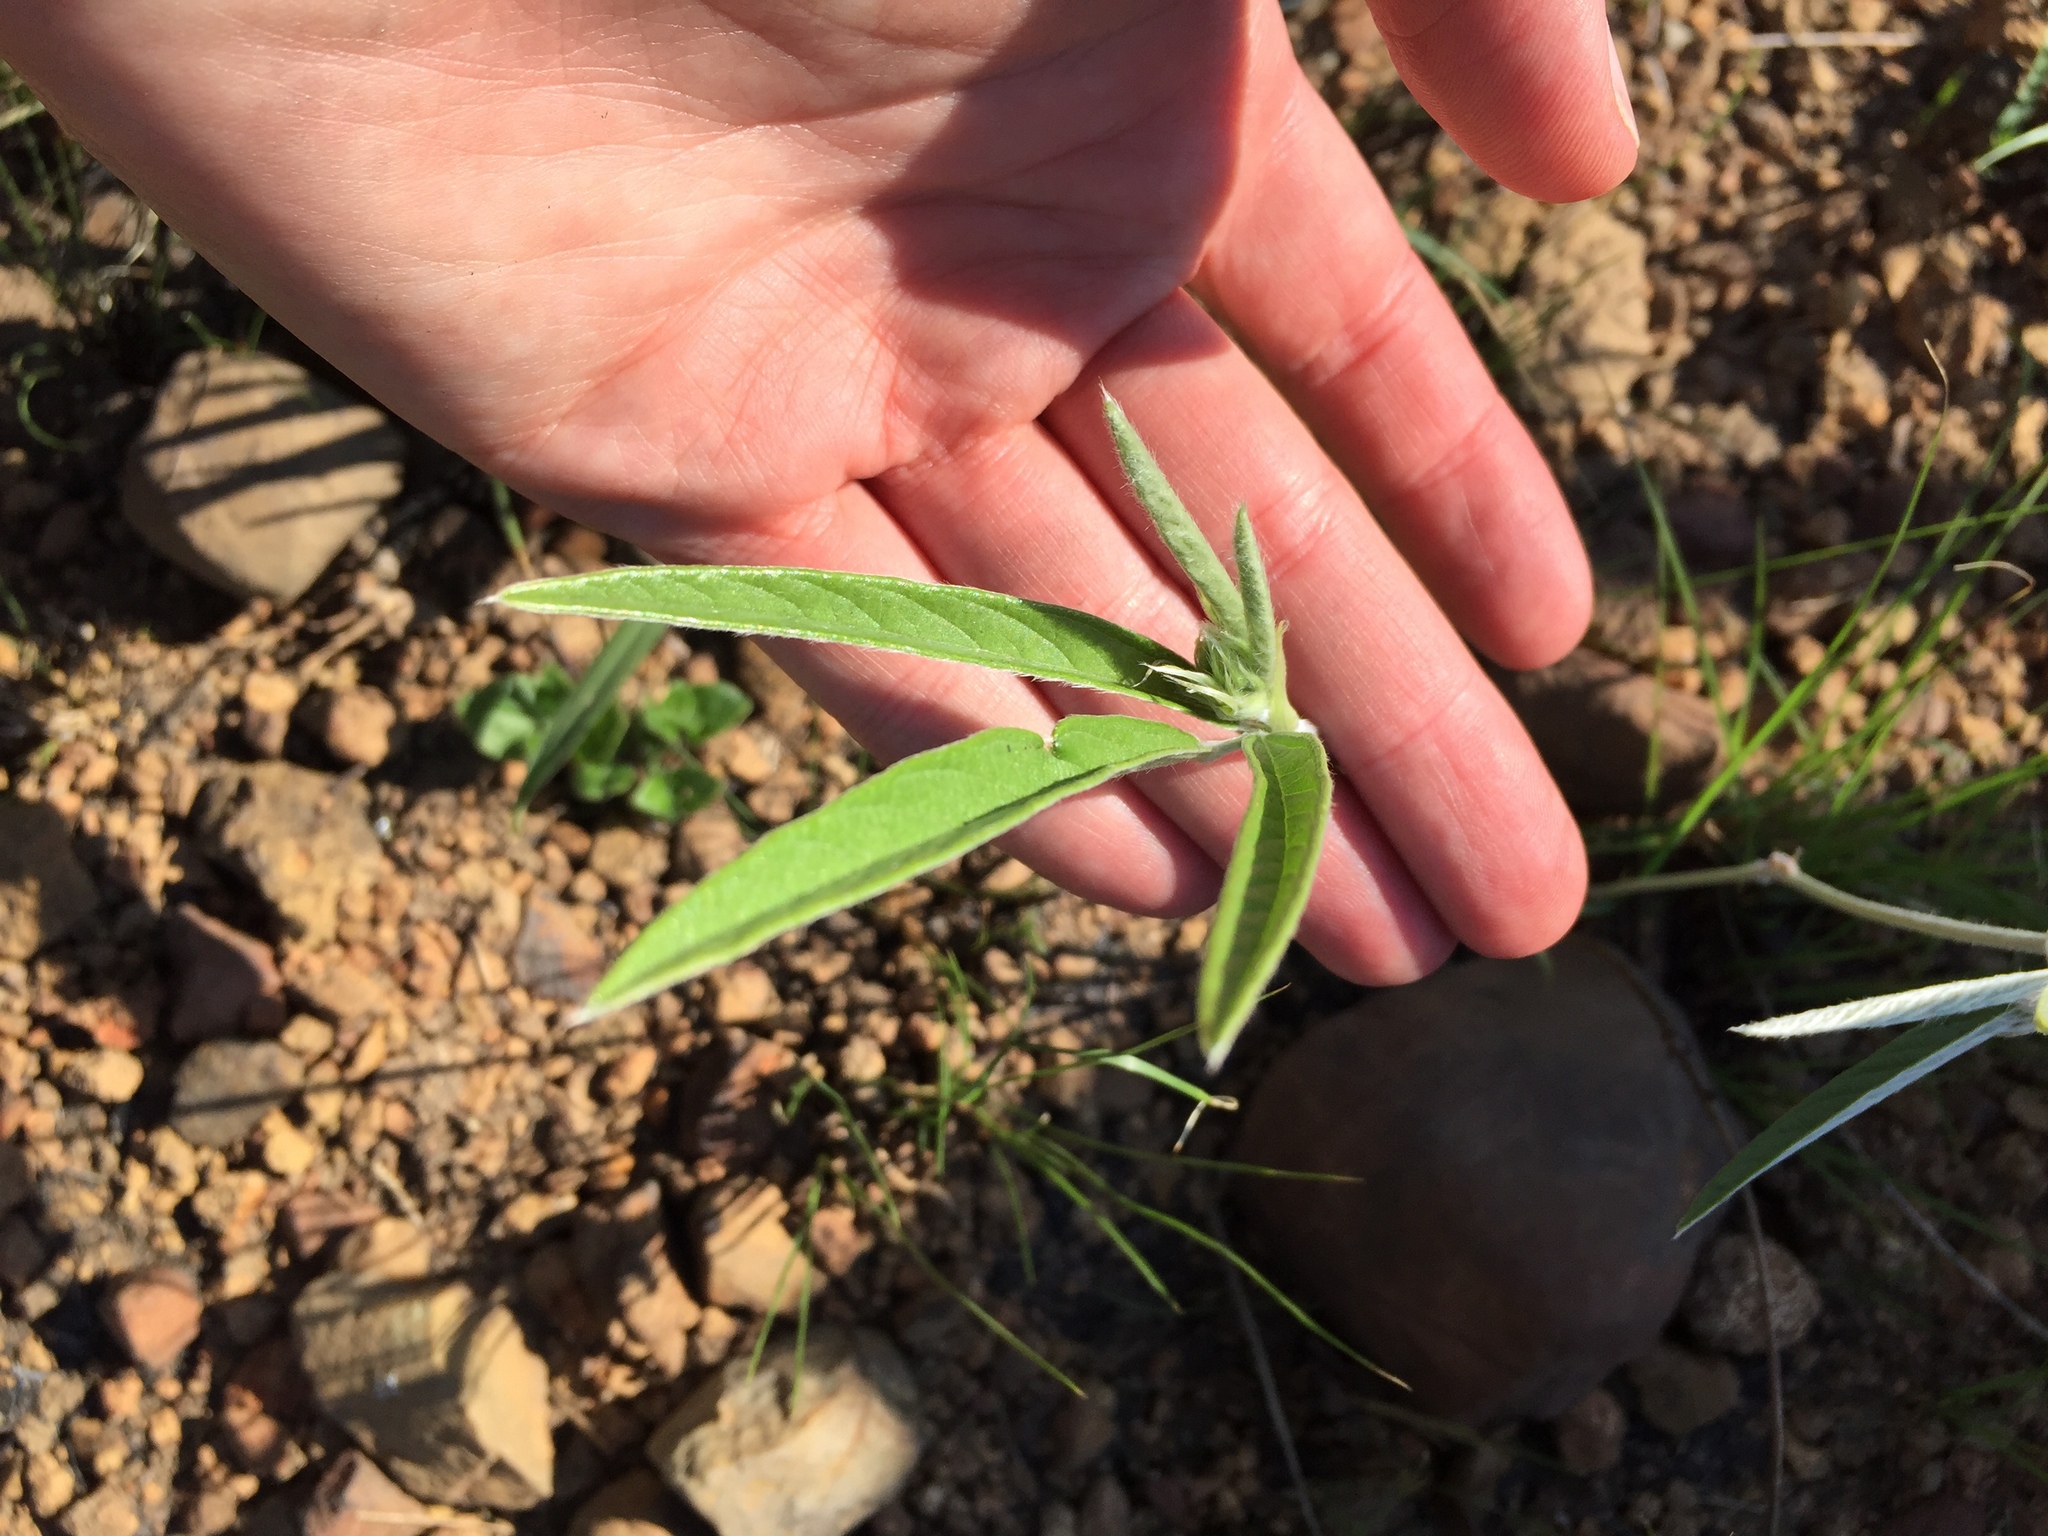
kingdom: Plantae
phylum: Tracheophyta
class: Magnoliopsida
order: Fabales
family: Fabaceae
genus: Eriosema
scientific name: Eriosema salignum
